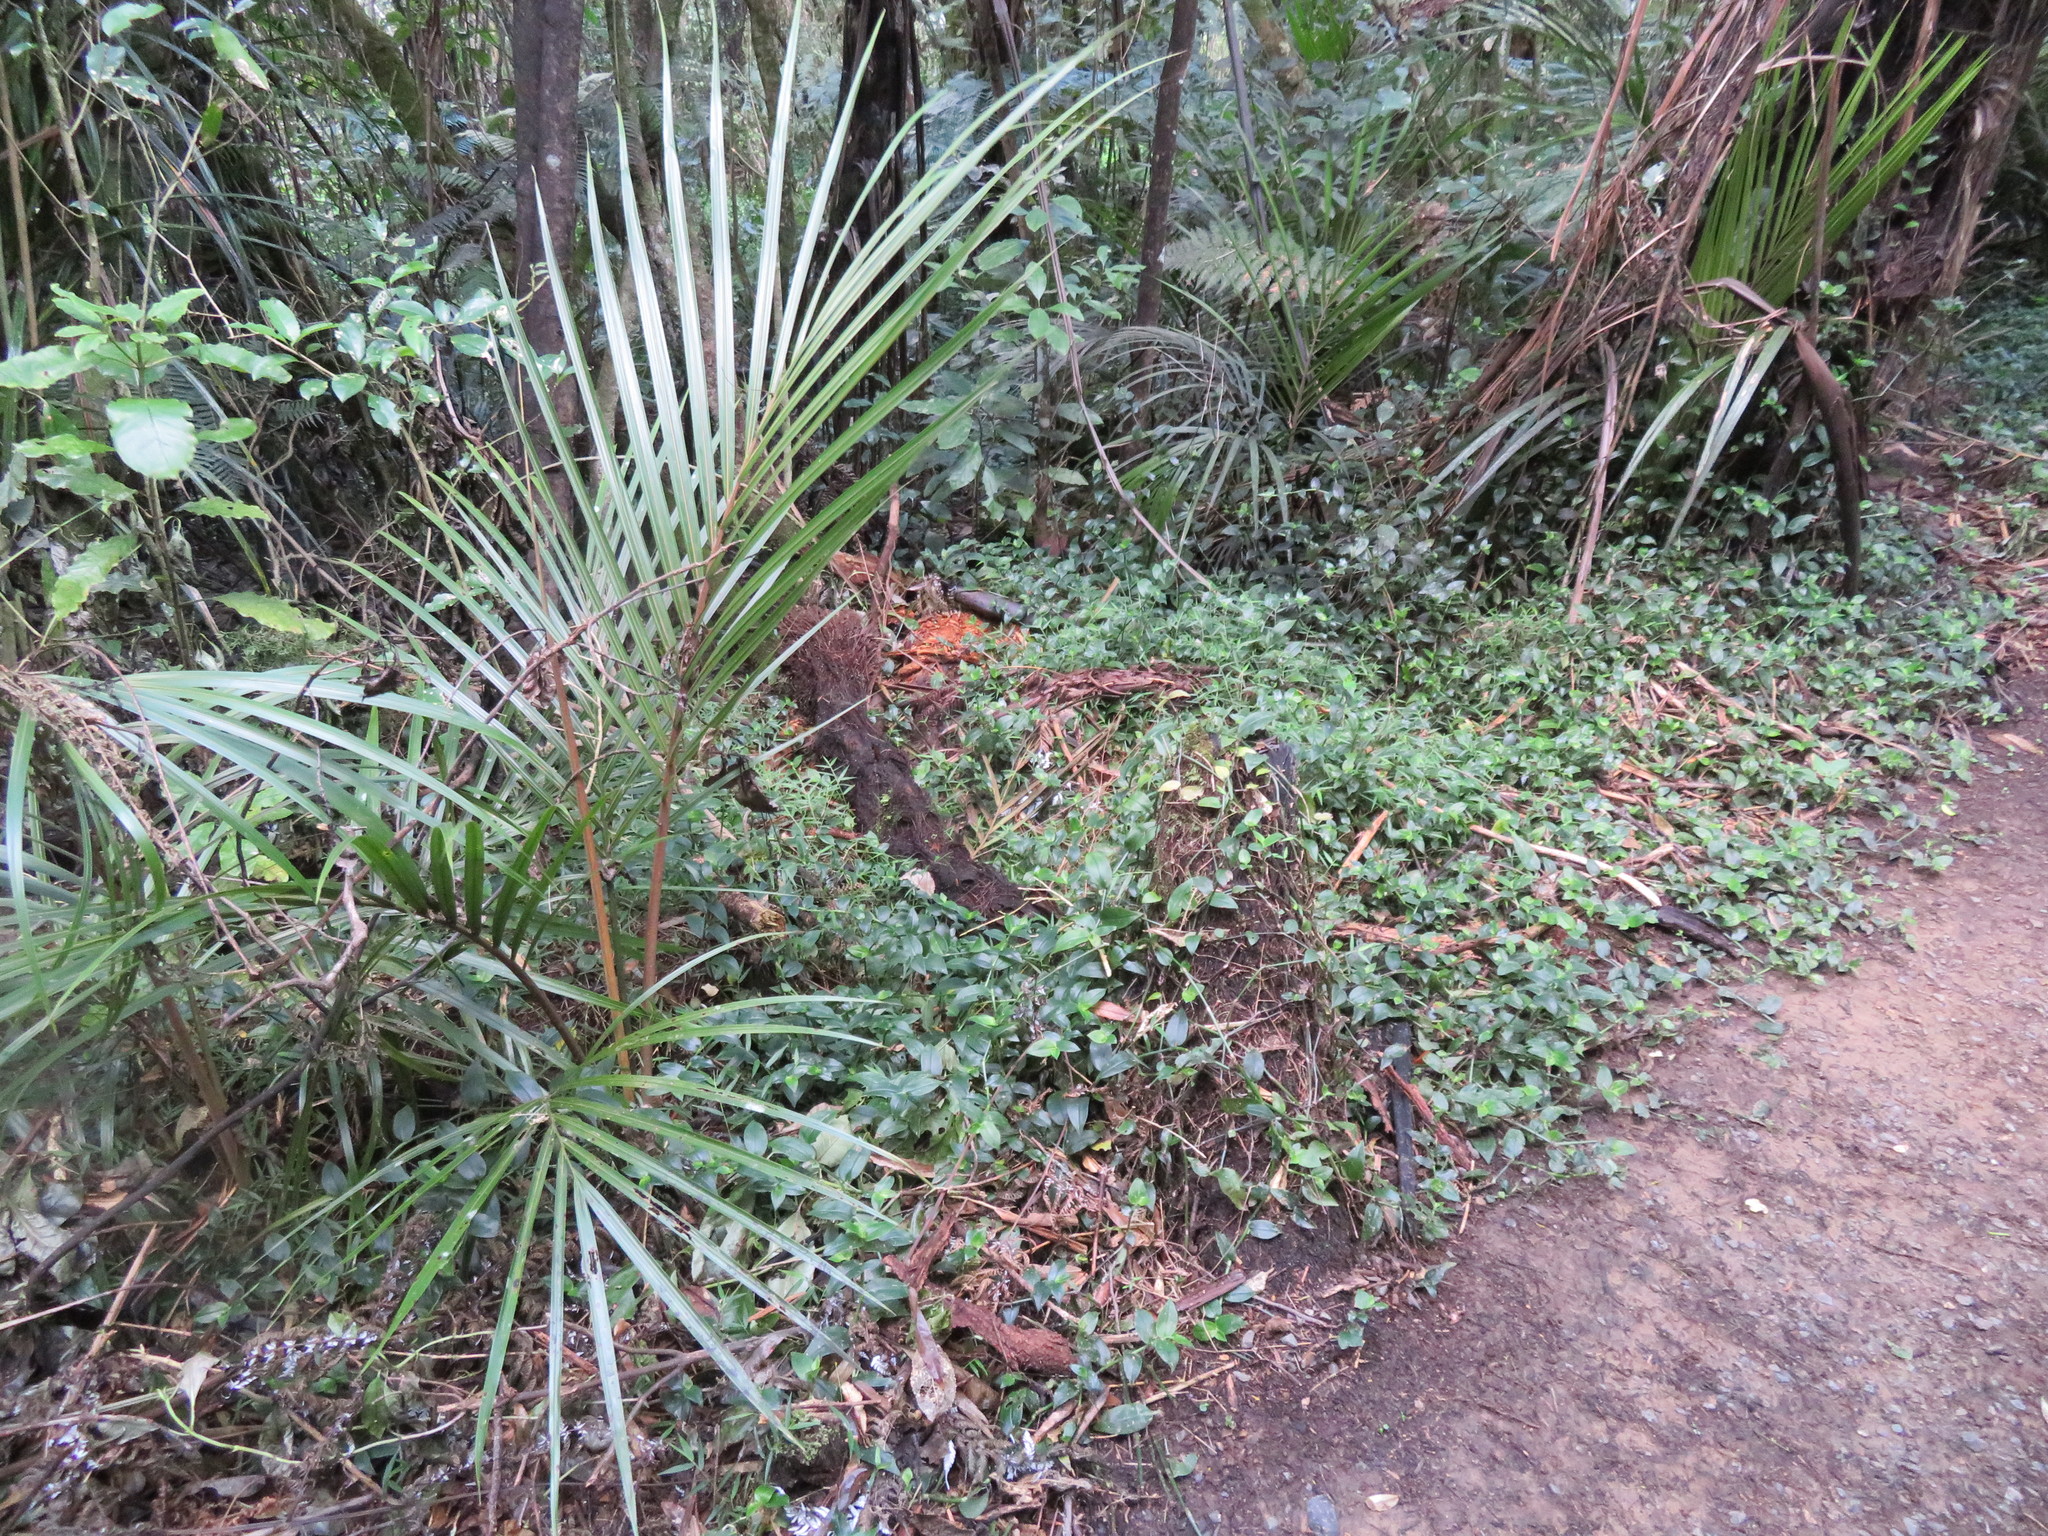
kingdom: Plantae
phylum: Tracheophyta
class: Liliopsida
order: Arecales
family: Arecaceae
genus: Rhopalostylis
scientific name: Rhopalostylis sapida
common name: Feather-duster palm
